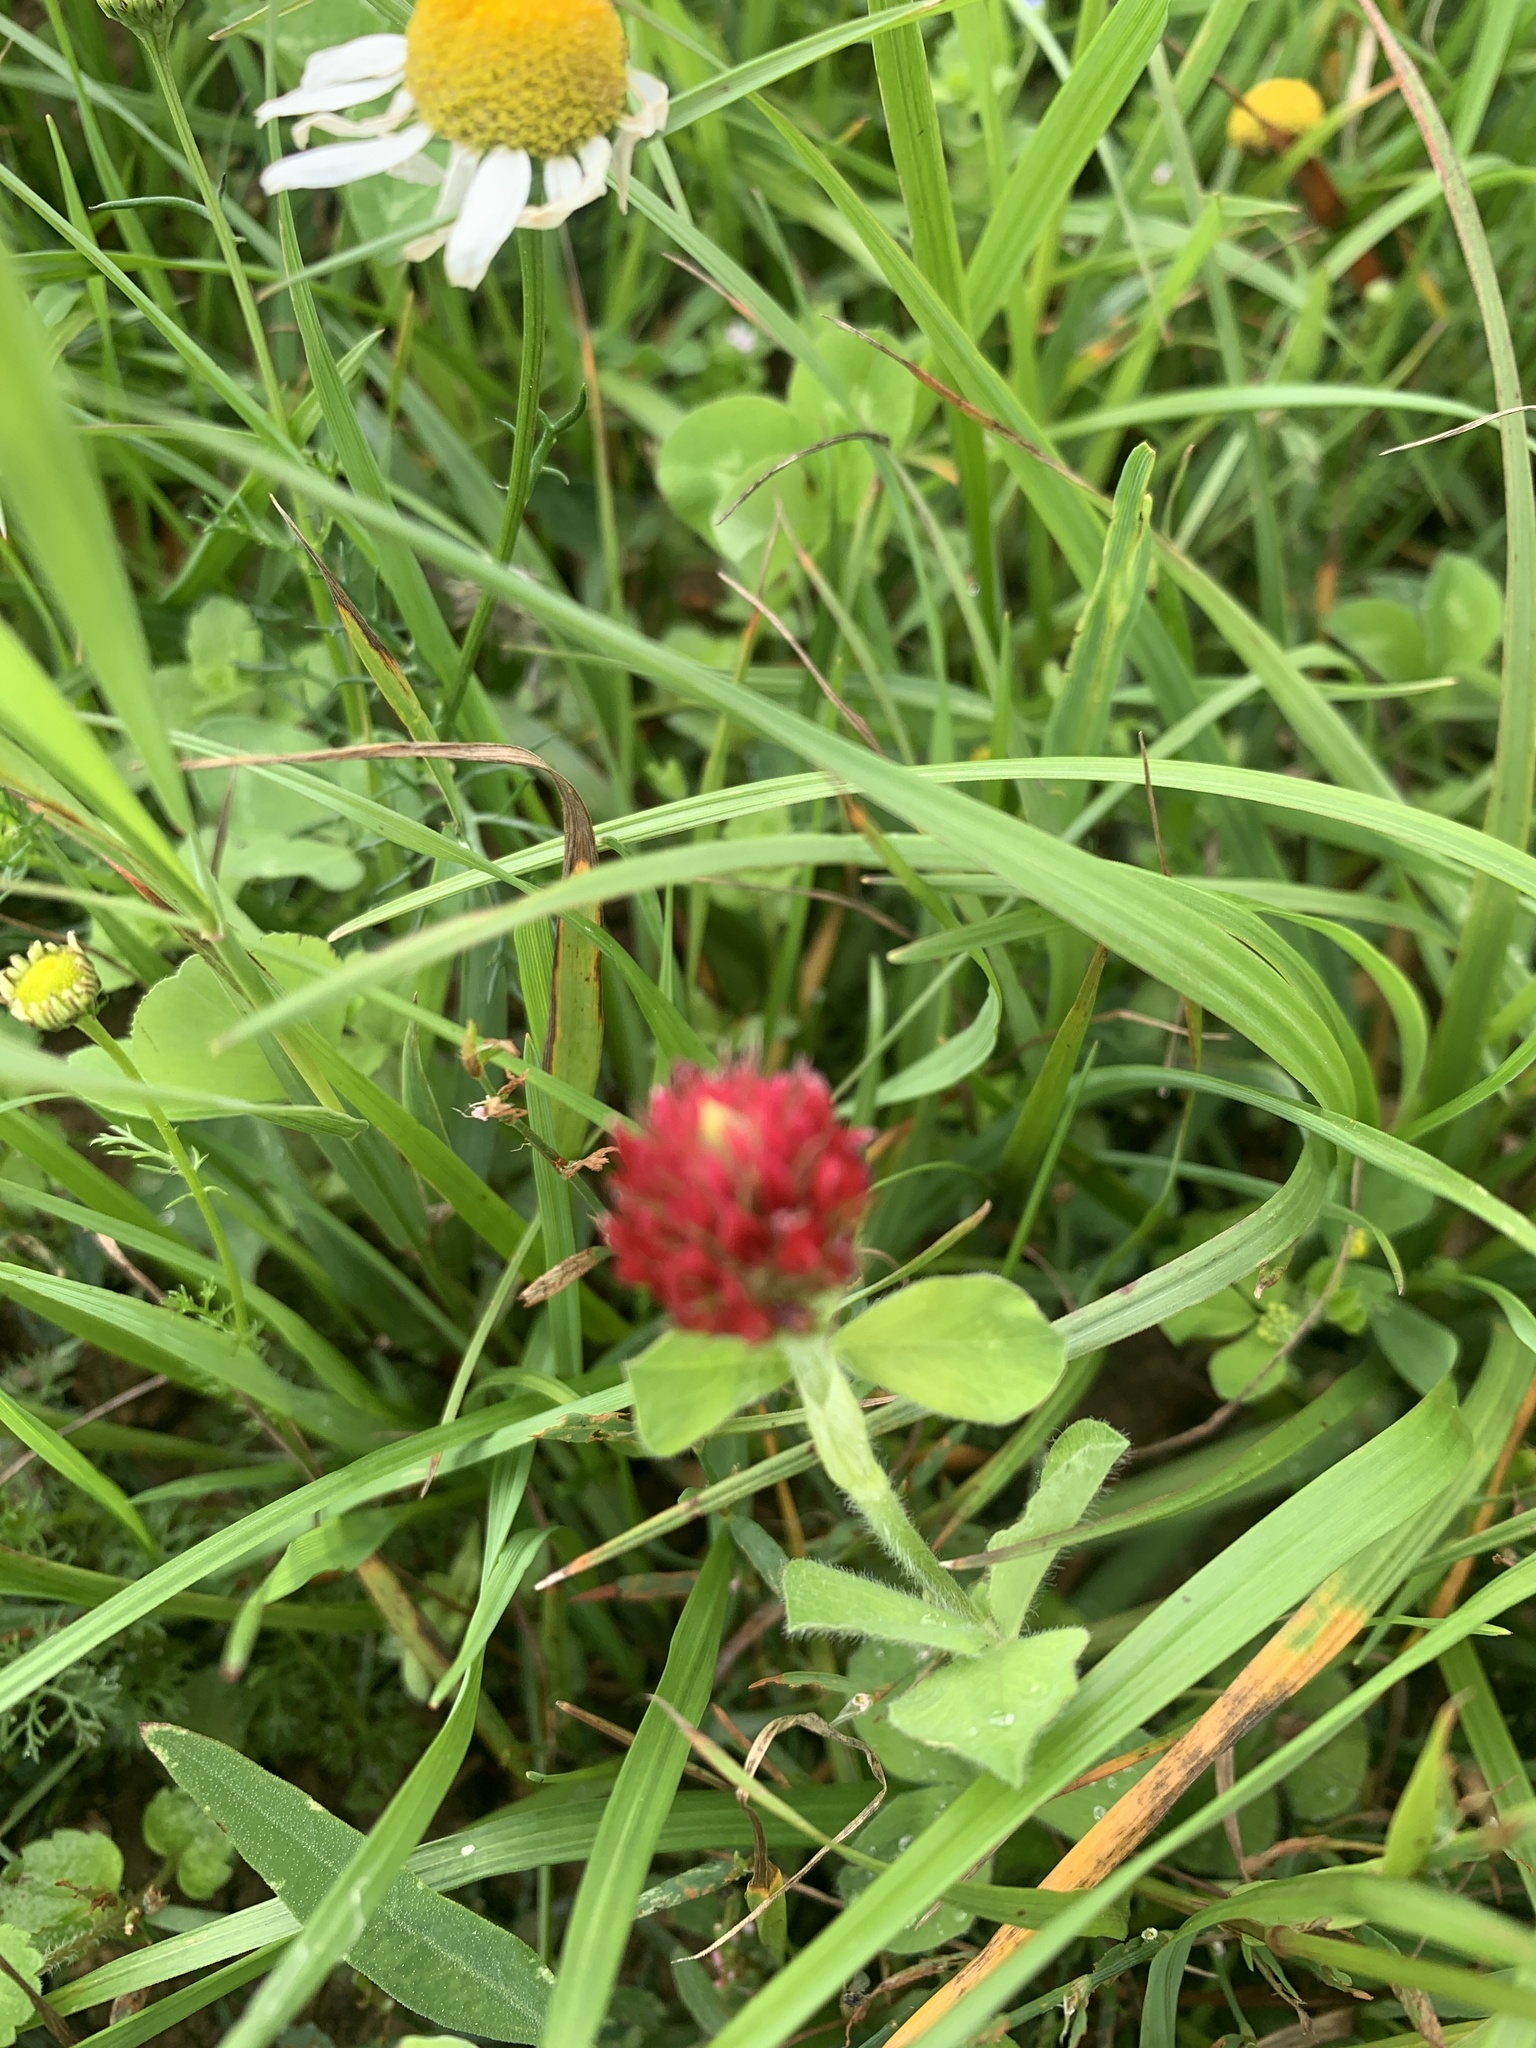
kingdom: Plantae
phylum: Tracheophyta
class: Magnoliopsida
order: Fabales
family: Fabaceae
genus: Trifolium
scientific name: Trifolium incarnatum
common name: Crimson clover
